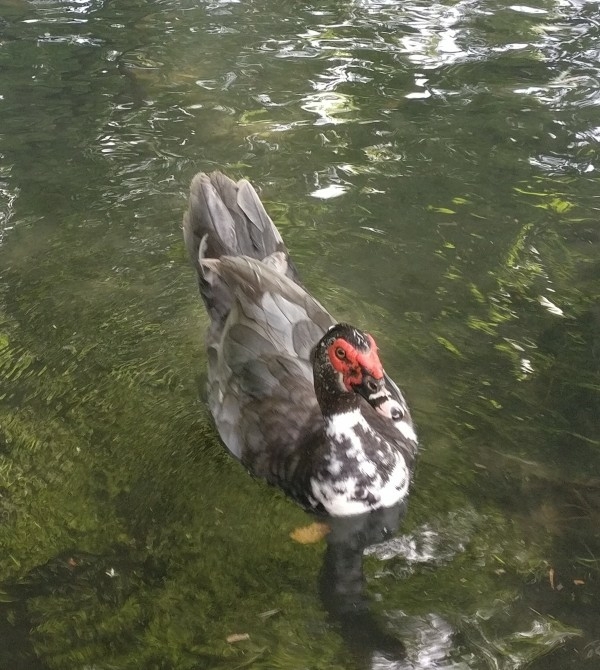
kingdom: Animalia
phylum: Chordata
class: Aves
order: Anseriformes
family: Anatidae
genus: Cairina
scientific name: Cairina moschata
